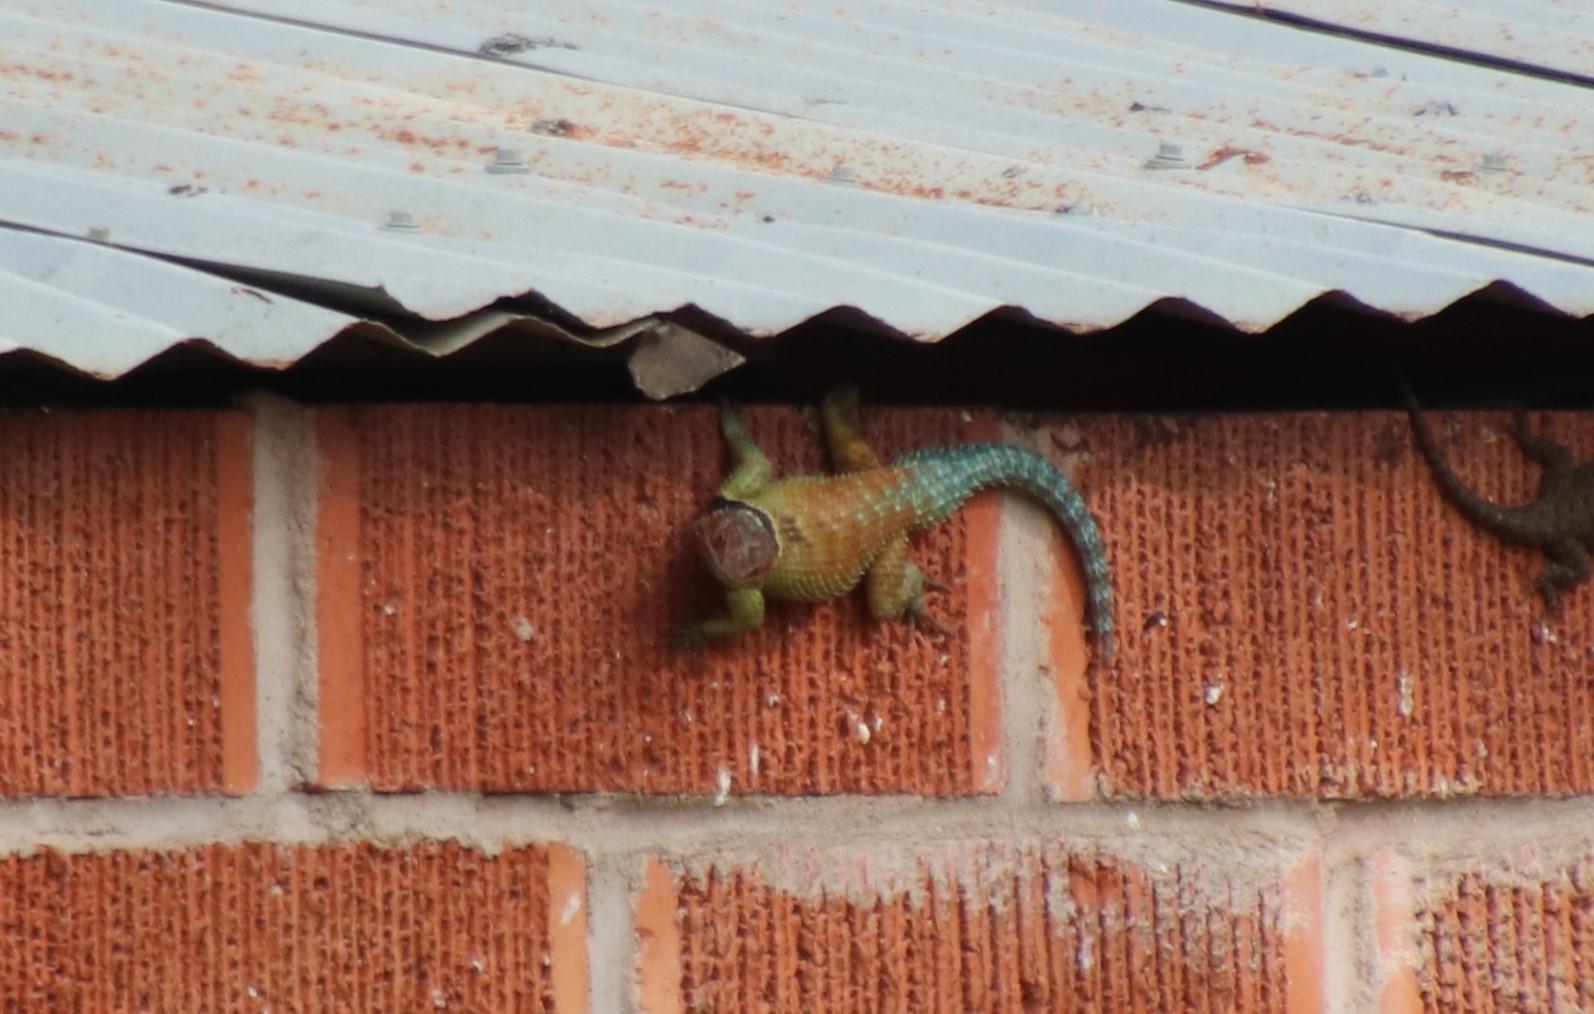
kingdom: Animalia
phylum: Chordata
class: Squamata
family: Phrynosomatidae
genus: Sceloporus
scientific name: Sceloporus cyanogenys
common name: Blue spiny lizard
